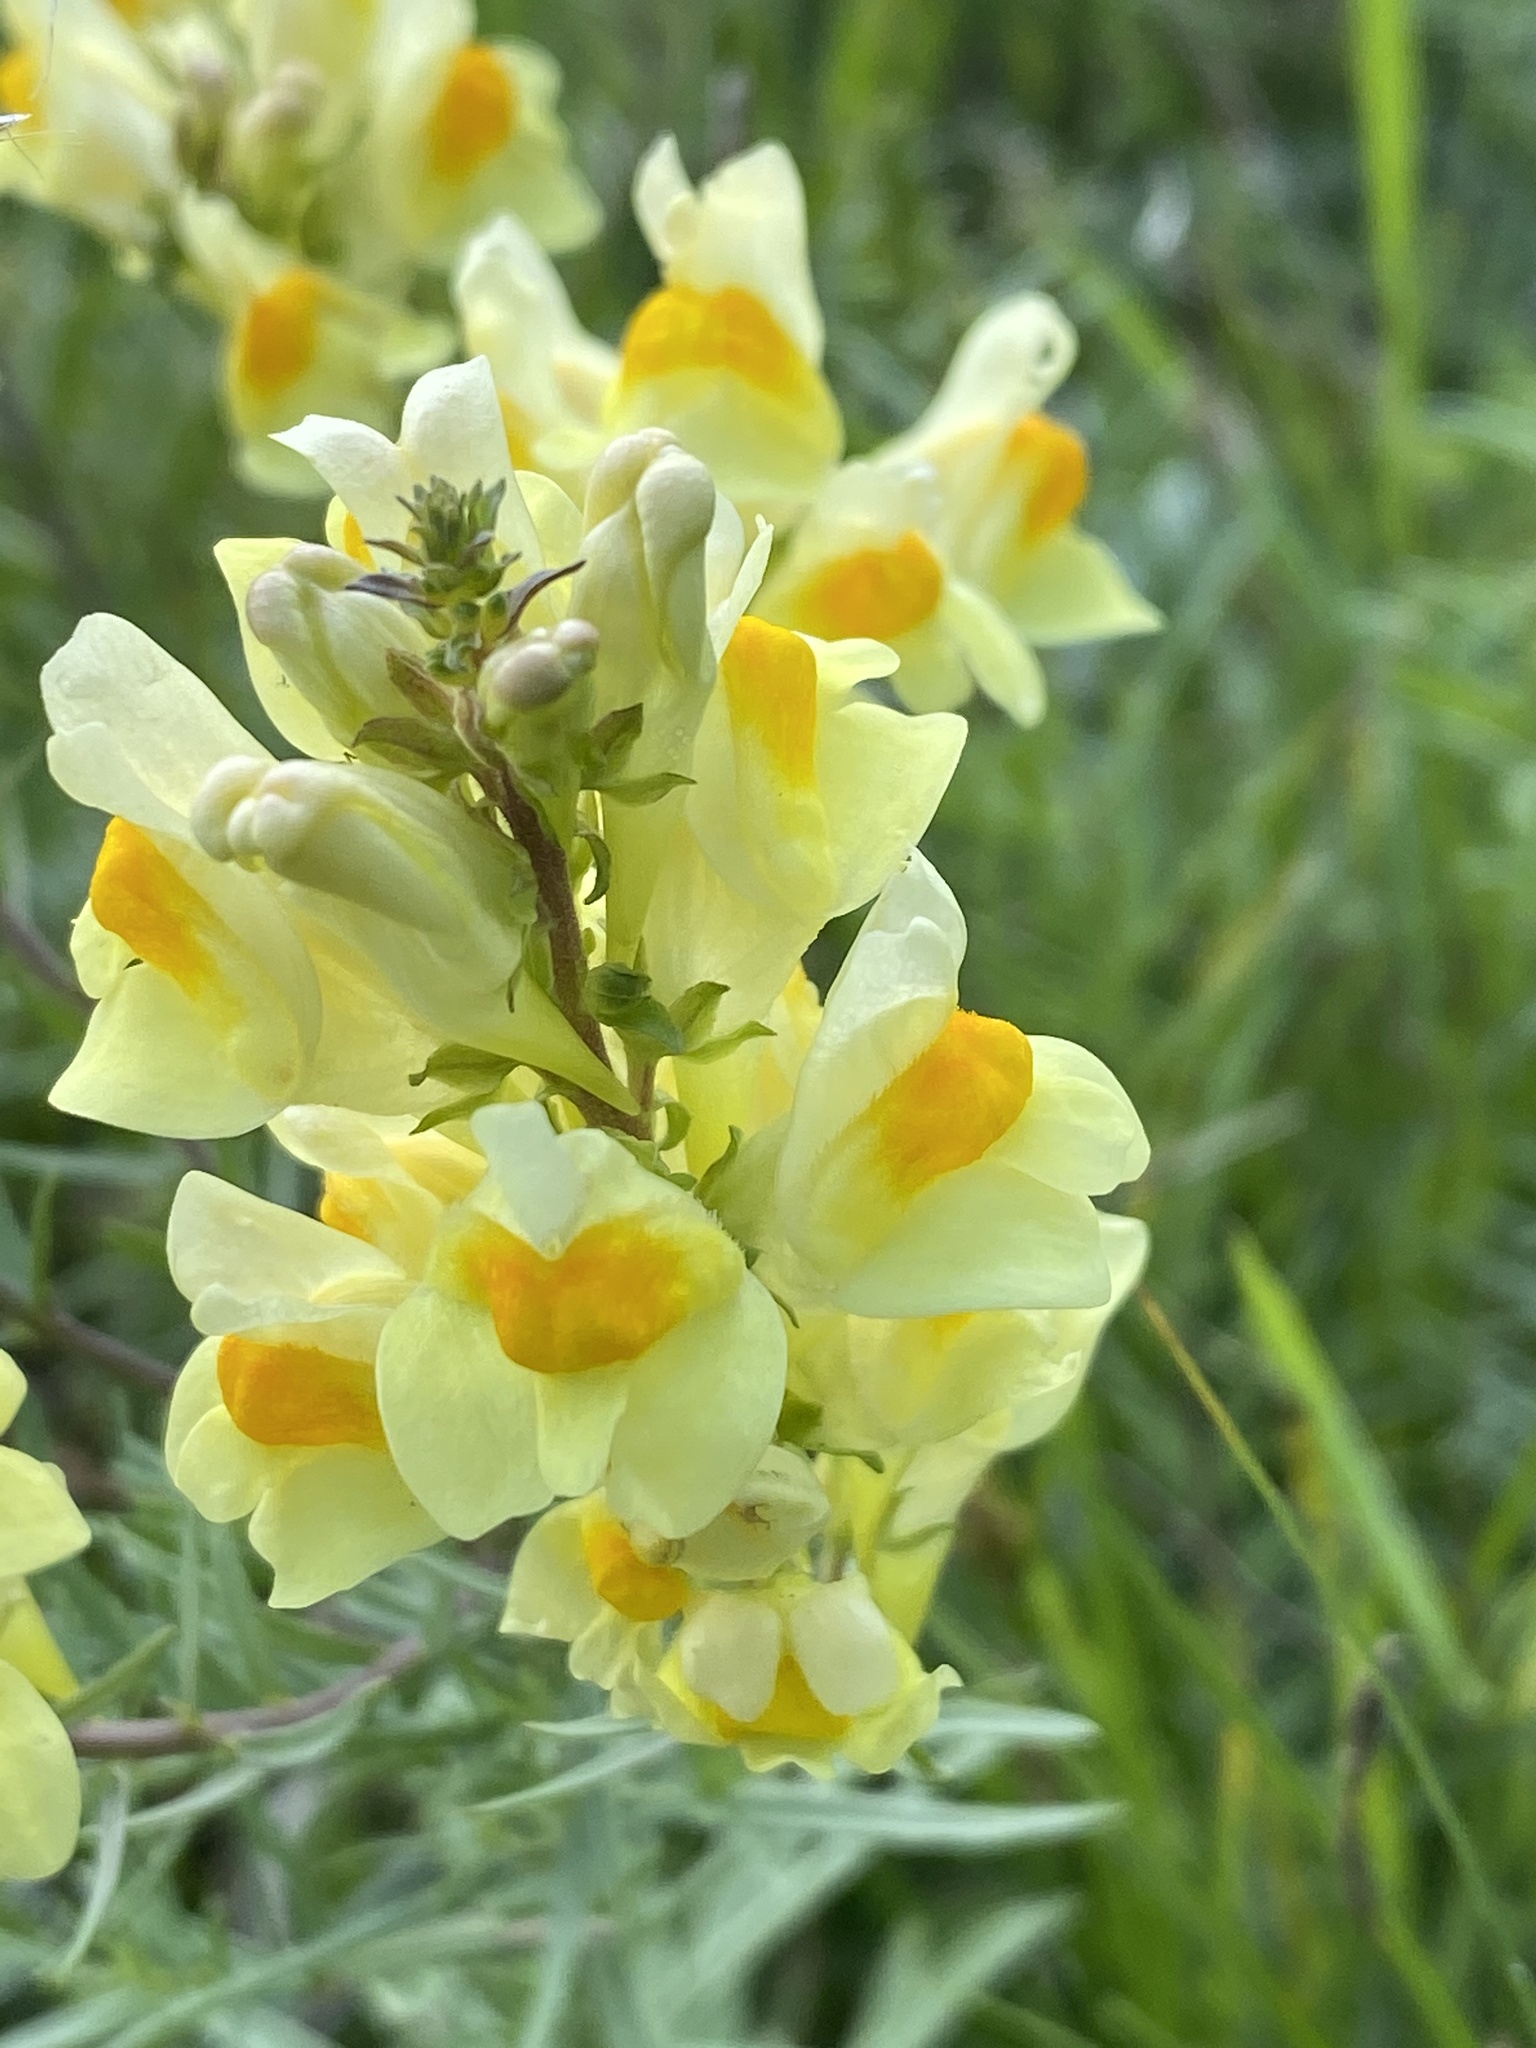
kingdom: Plantae
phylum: Tracheophyta
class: Magnoliopsida
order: Lamiales
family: Plantaginaceae
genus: Linaria
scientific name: Linaria vulgaris
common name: Butter and eggs
